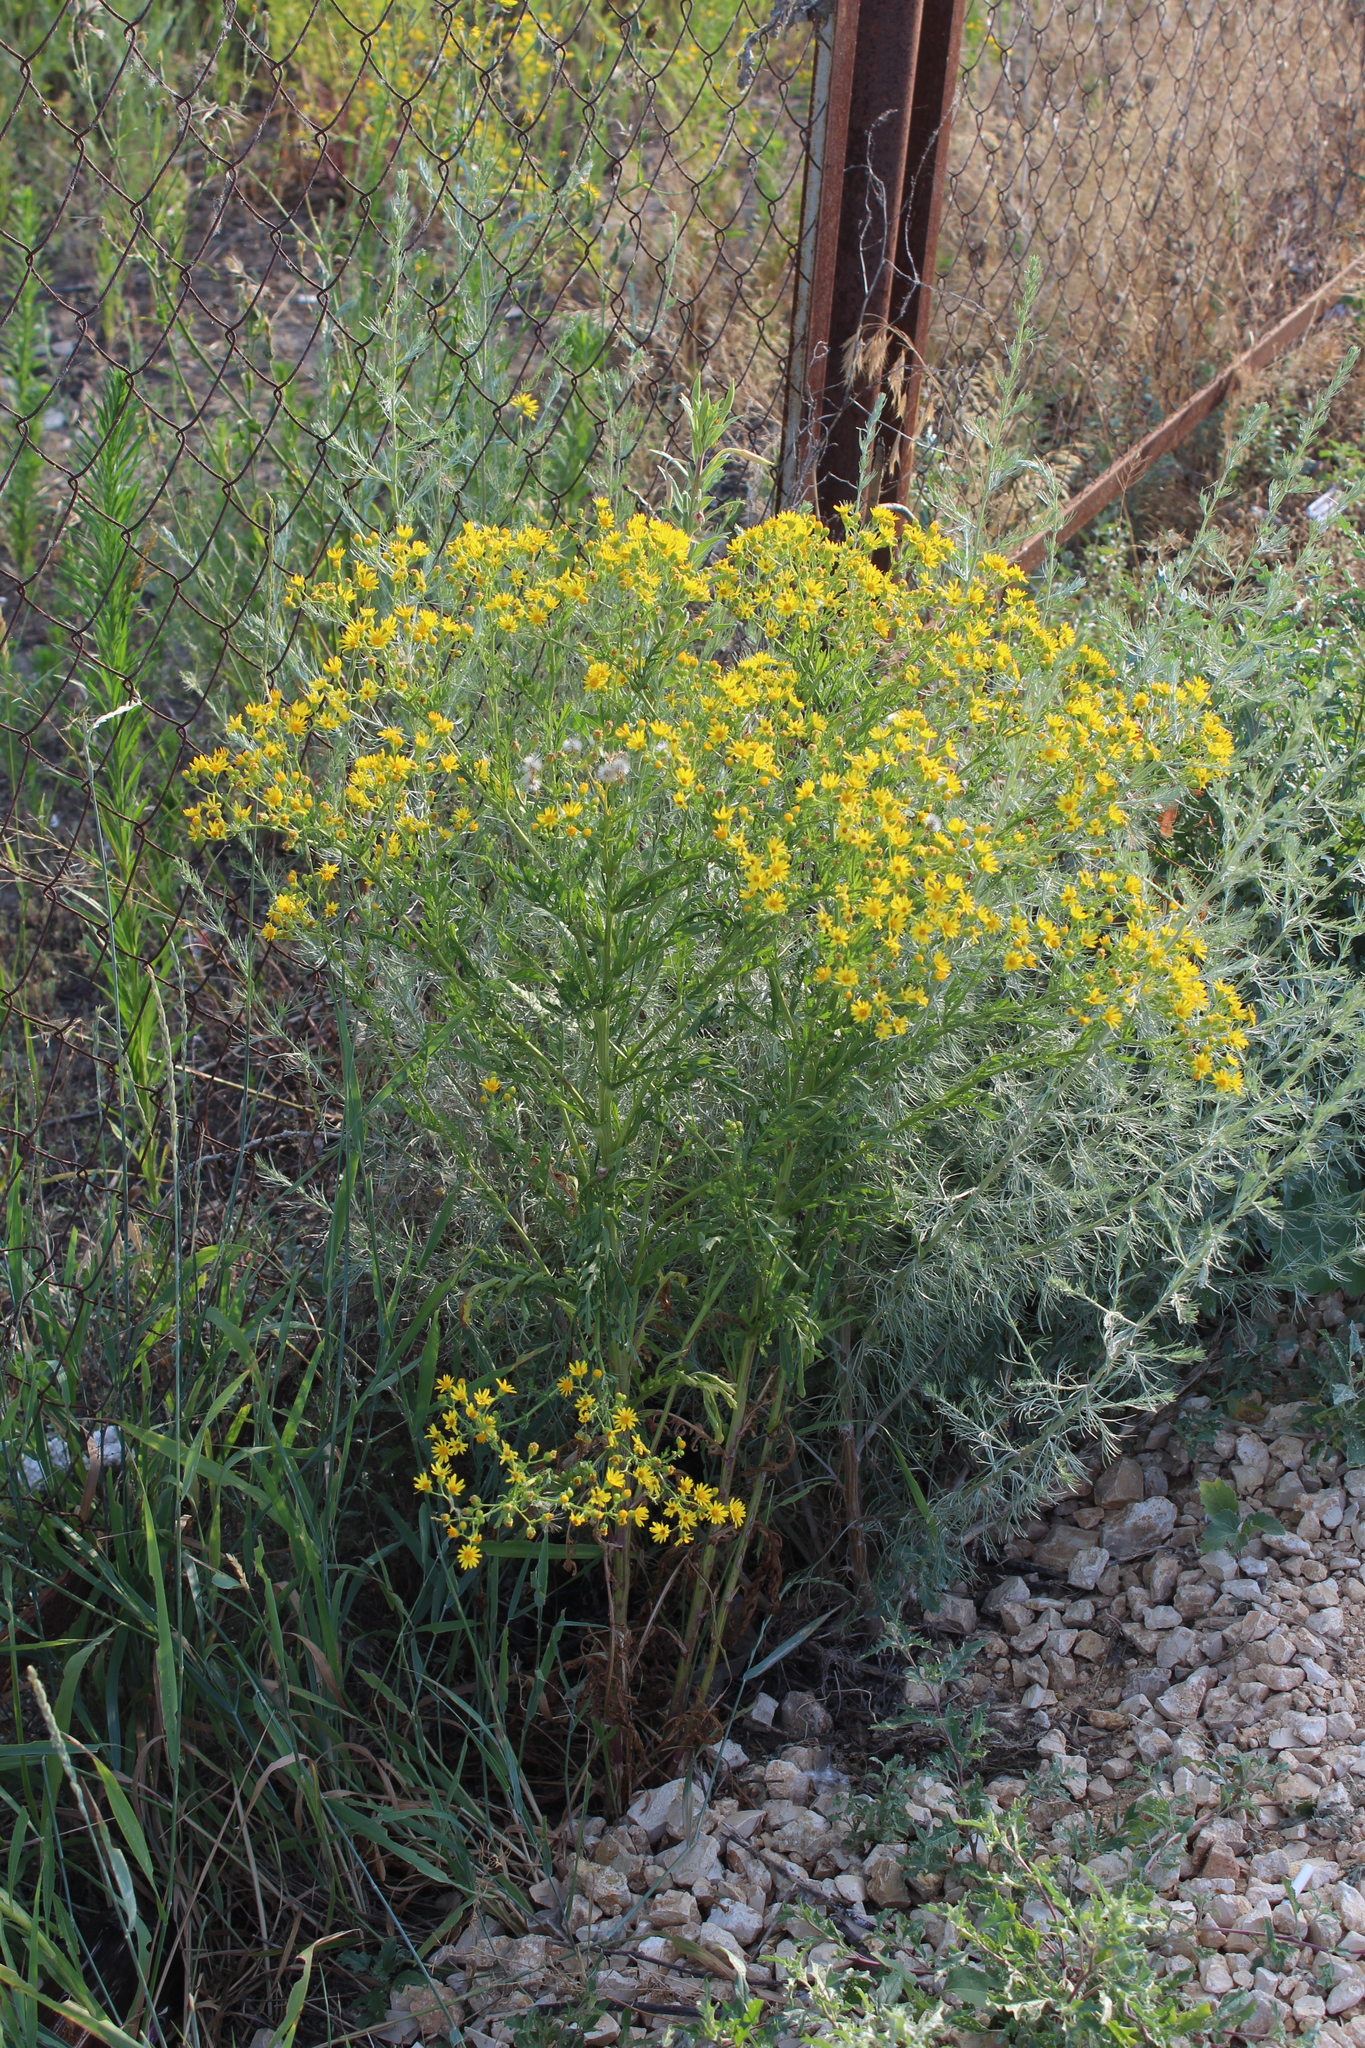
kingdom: Plantae
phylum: Tracheophyta
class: Magnoliopsida
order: Asterales
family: Asteraceae
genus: Jacobaea
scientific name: Jacobaea andrzejowskyi
